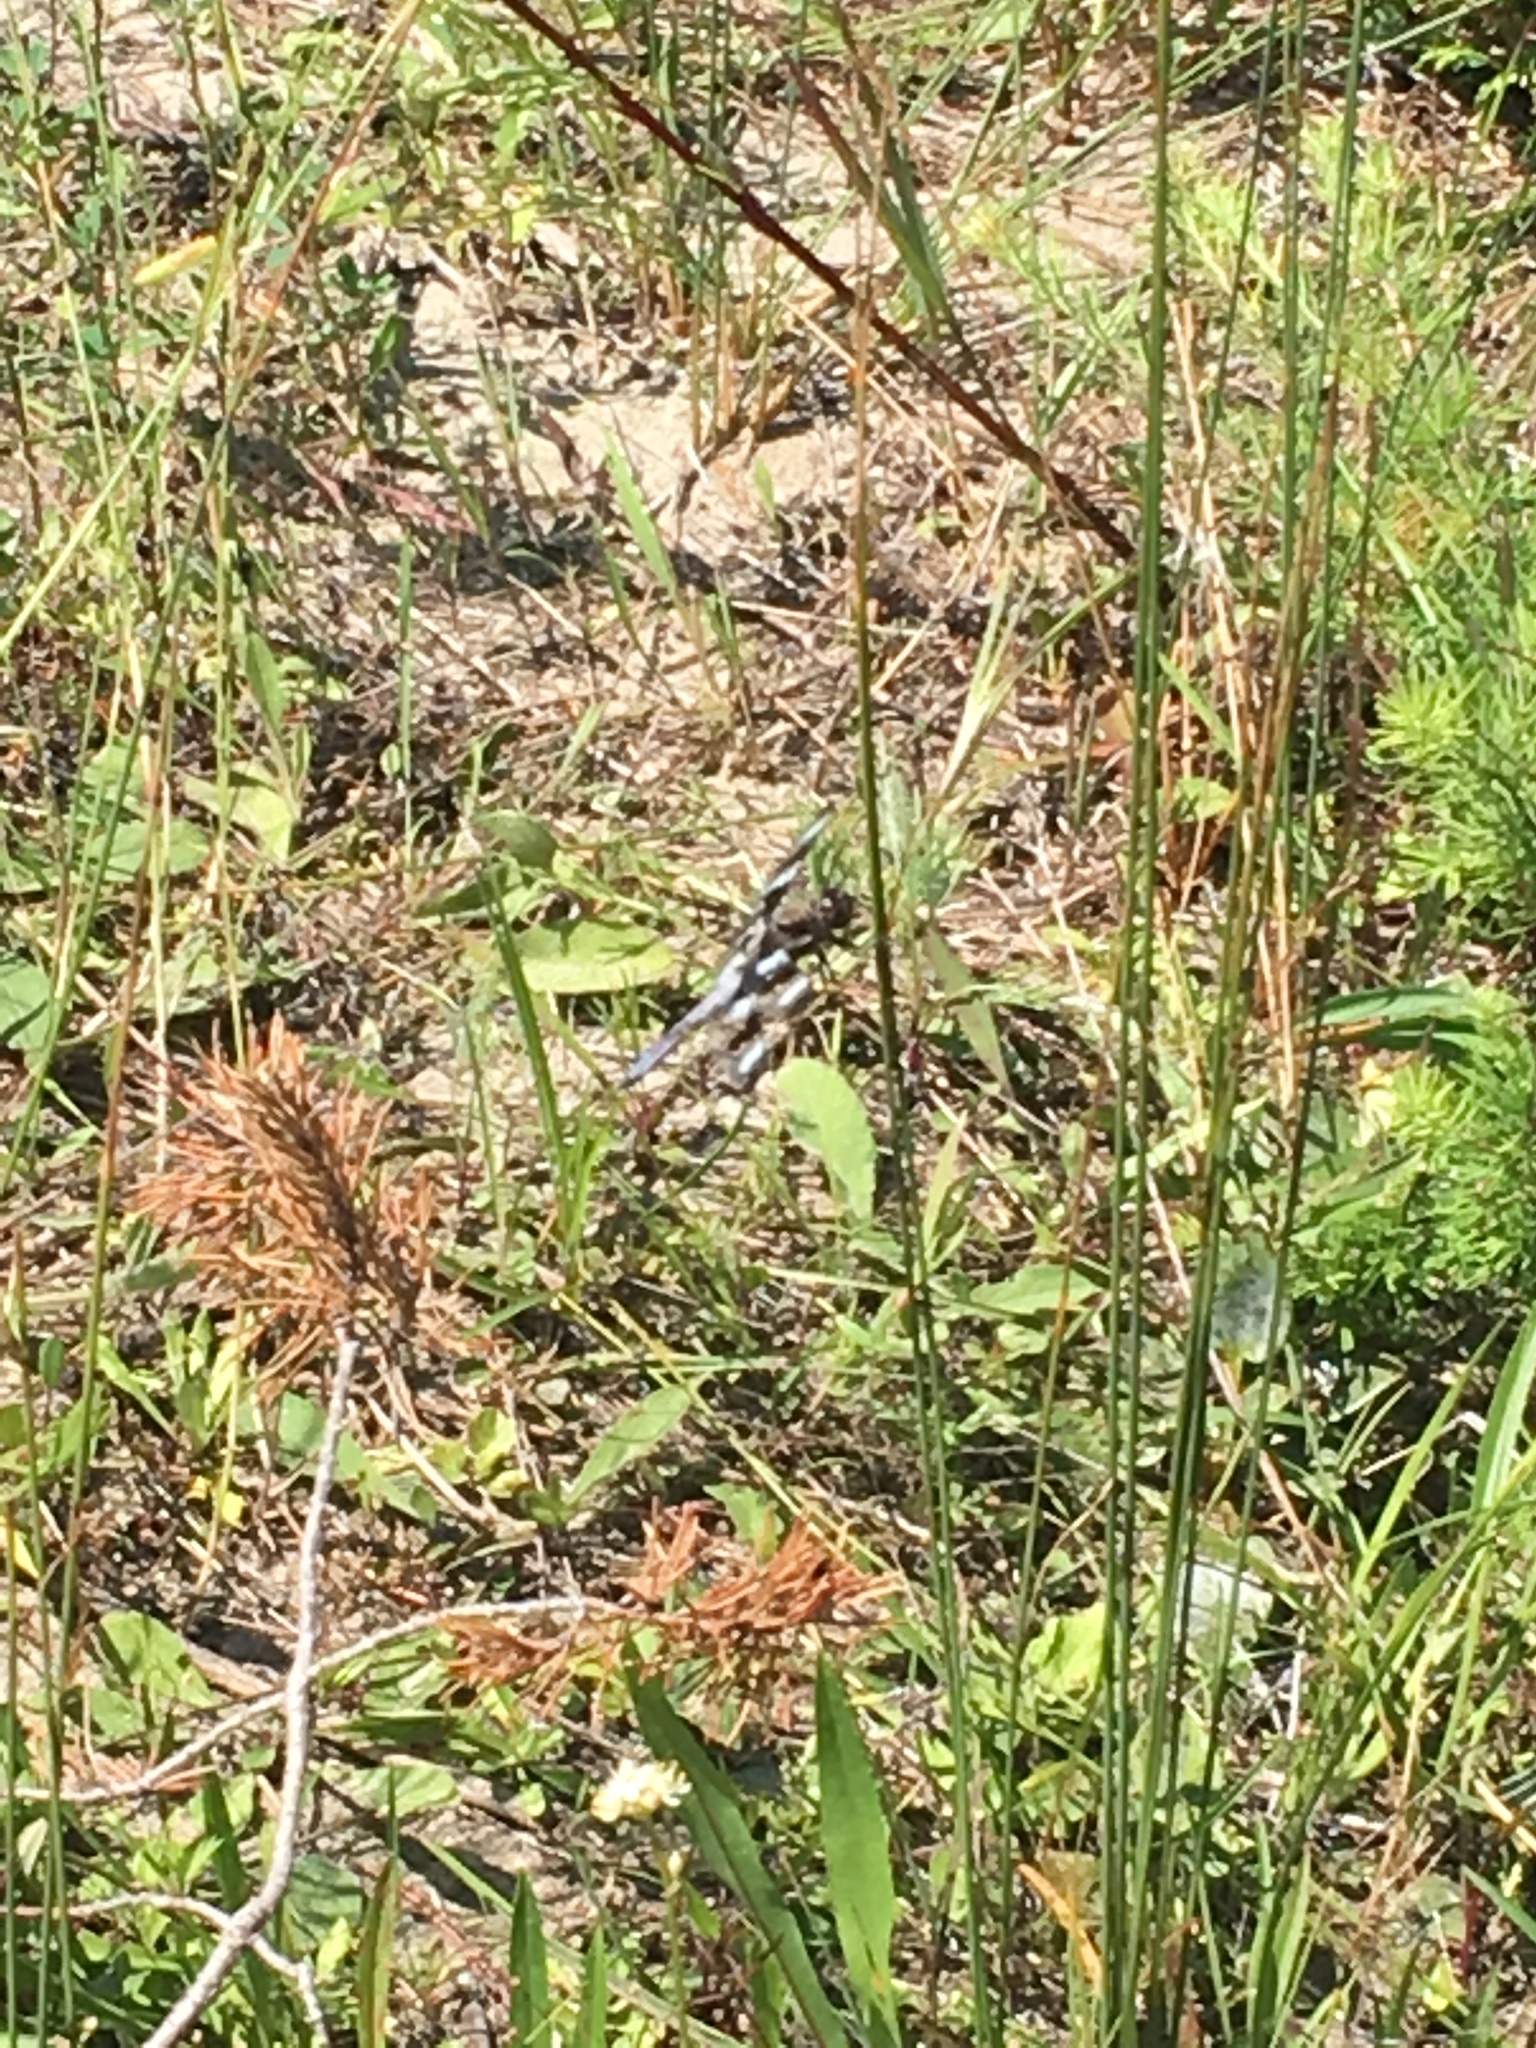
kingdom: Animalia
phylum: Arthropoda
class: Insecta
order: Odonata
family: Libellulidae
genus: Libellula
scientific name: Libellula pulchella
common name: Twelve-spotted skimmer
